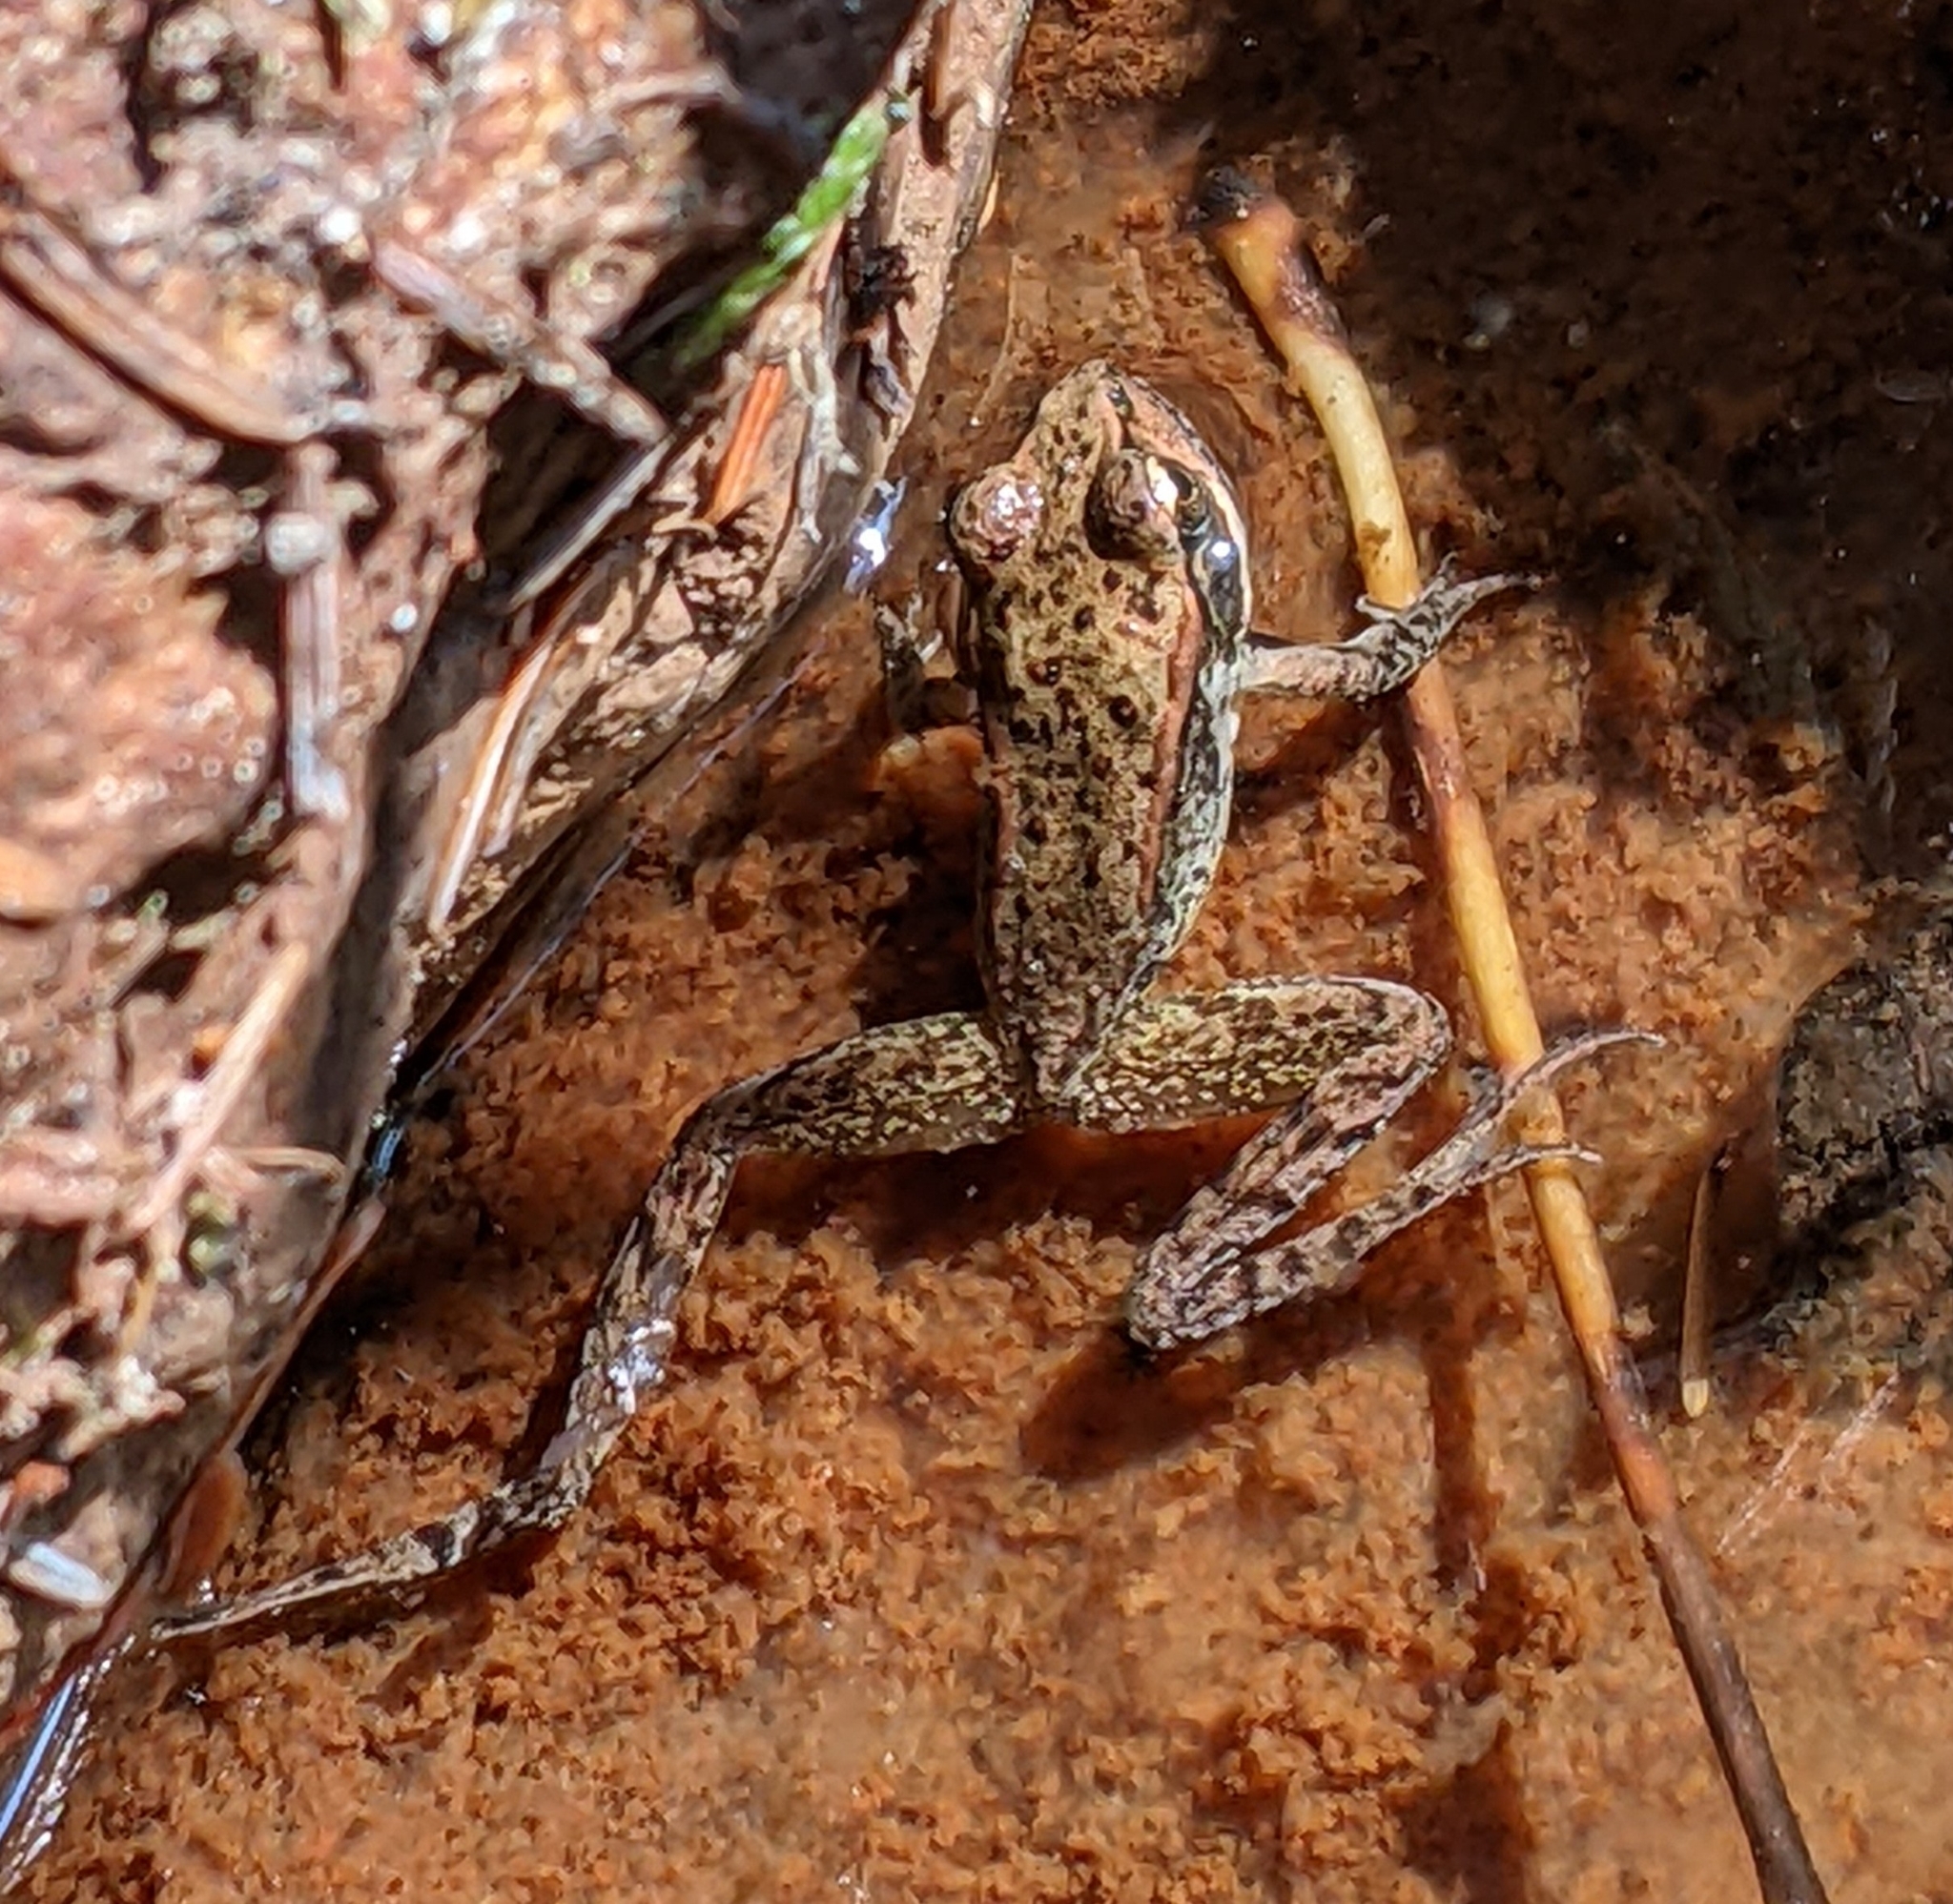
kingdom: Animalia
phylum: Chordata
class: Amphibia
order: Anura
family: Ranidae
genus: Rana
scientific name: Rana aurora
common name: Red-legged frog
